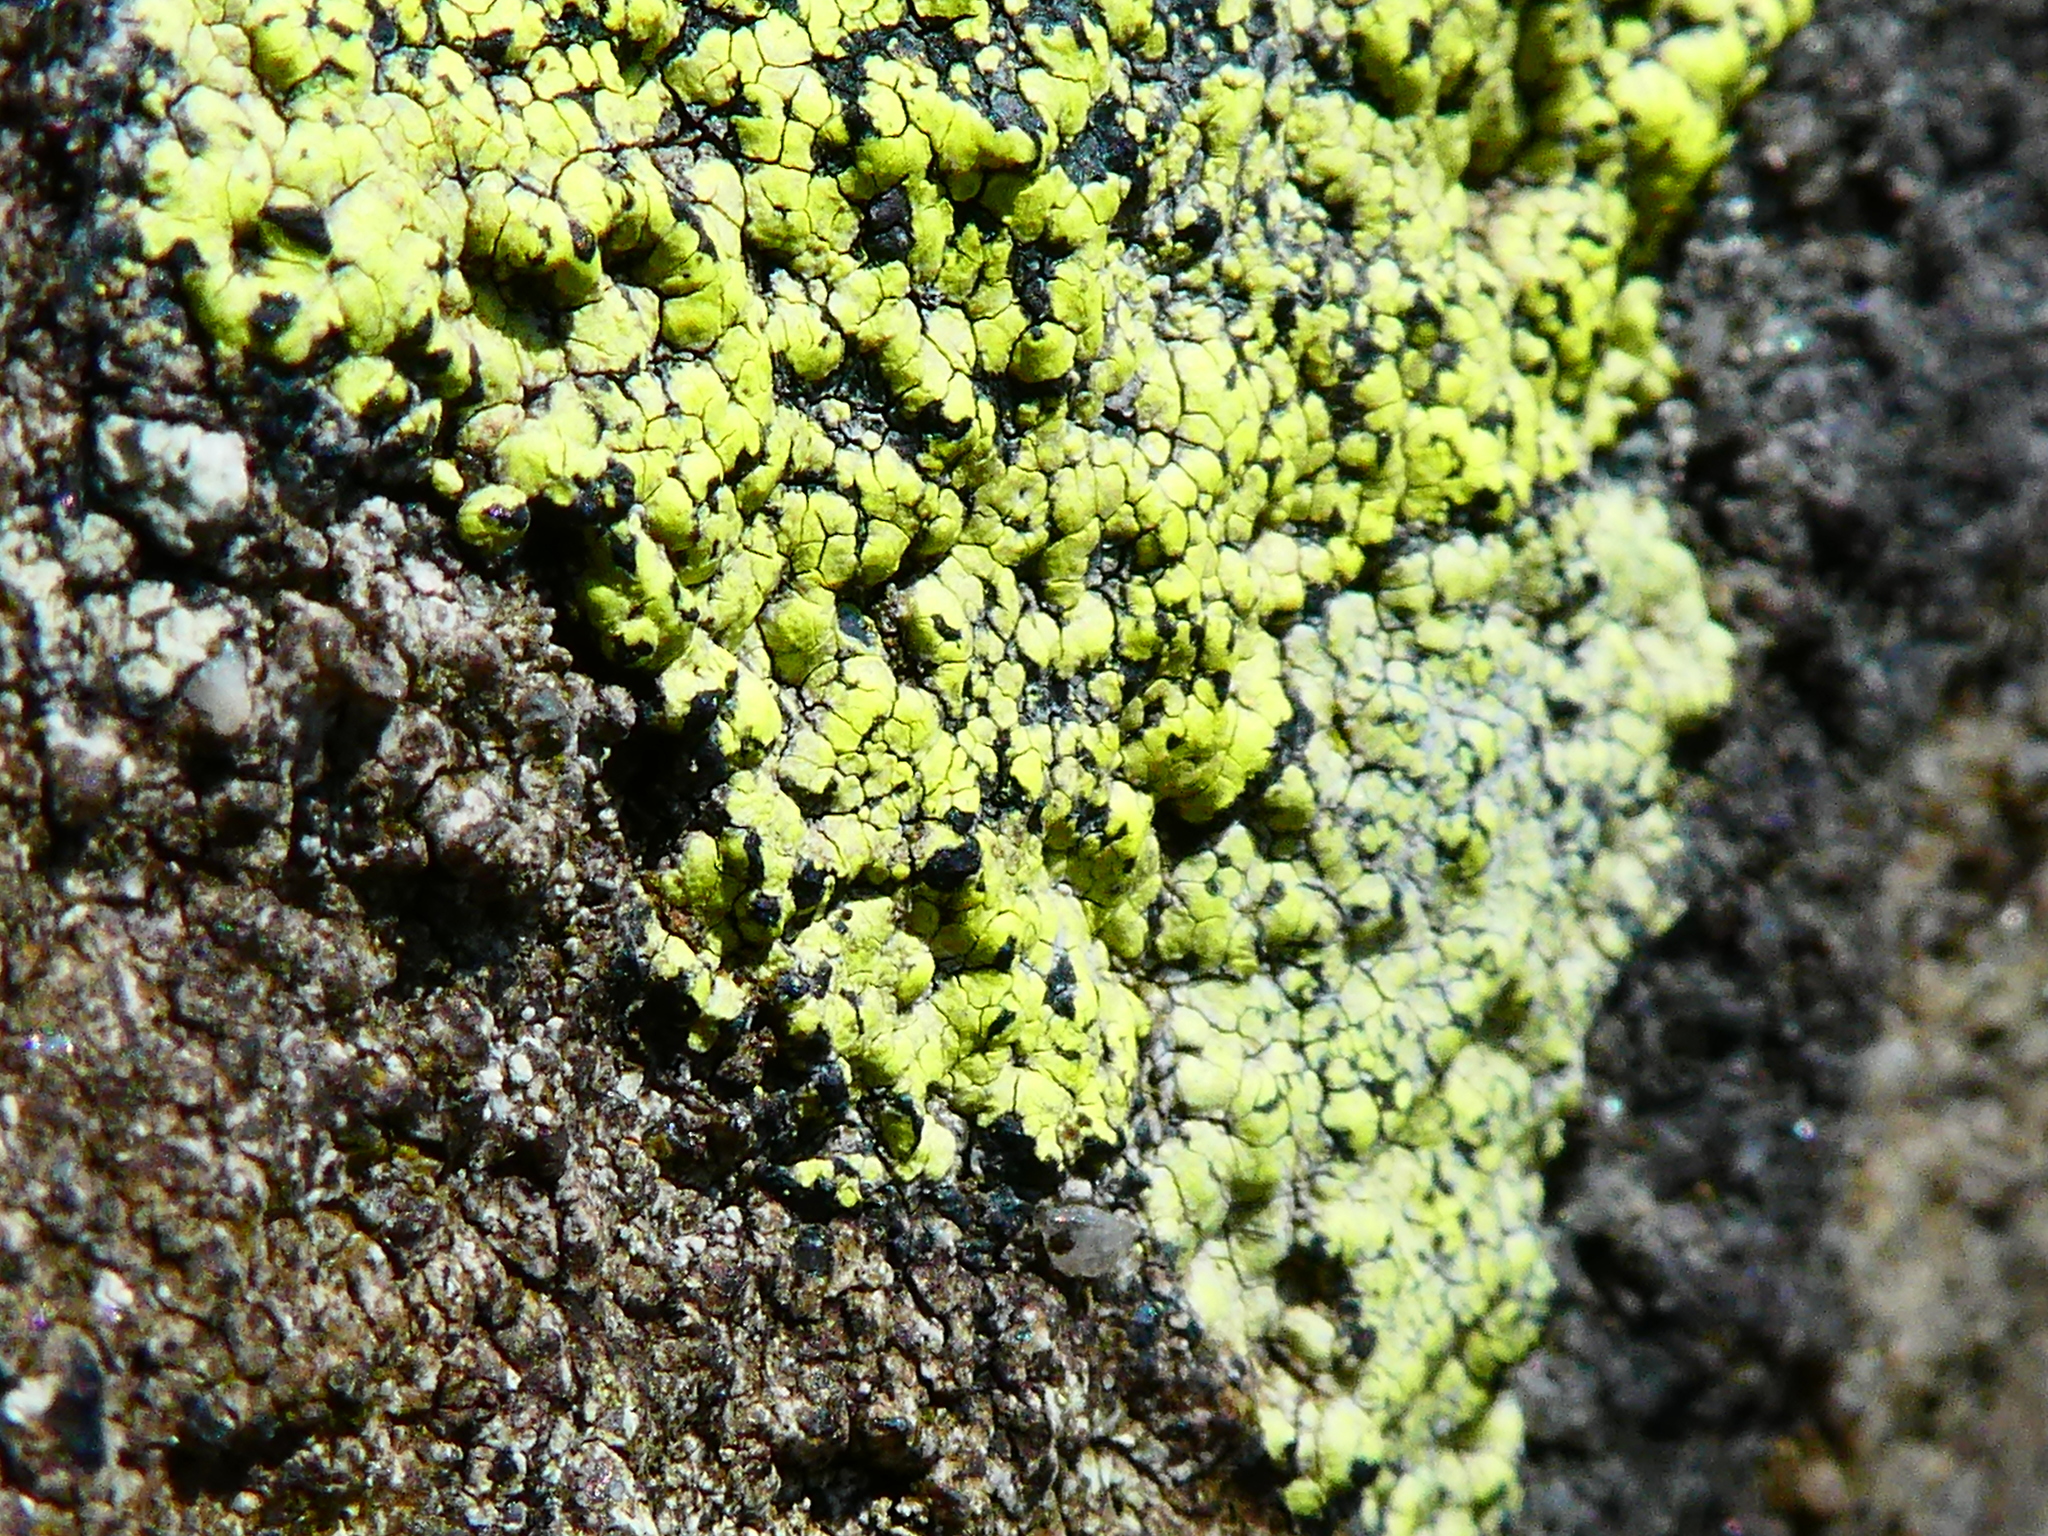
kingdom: Fungi
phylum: Ascomycota
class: Lecanoromycetes
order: Rhizocarpales
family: Rhizocarpaceae
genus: Rhizocarpon
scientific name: Rhizocarpon geographicum
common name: Yellow map lichen
